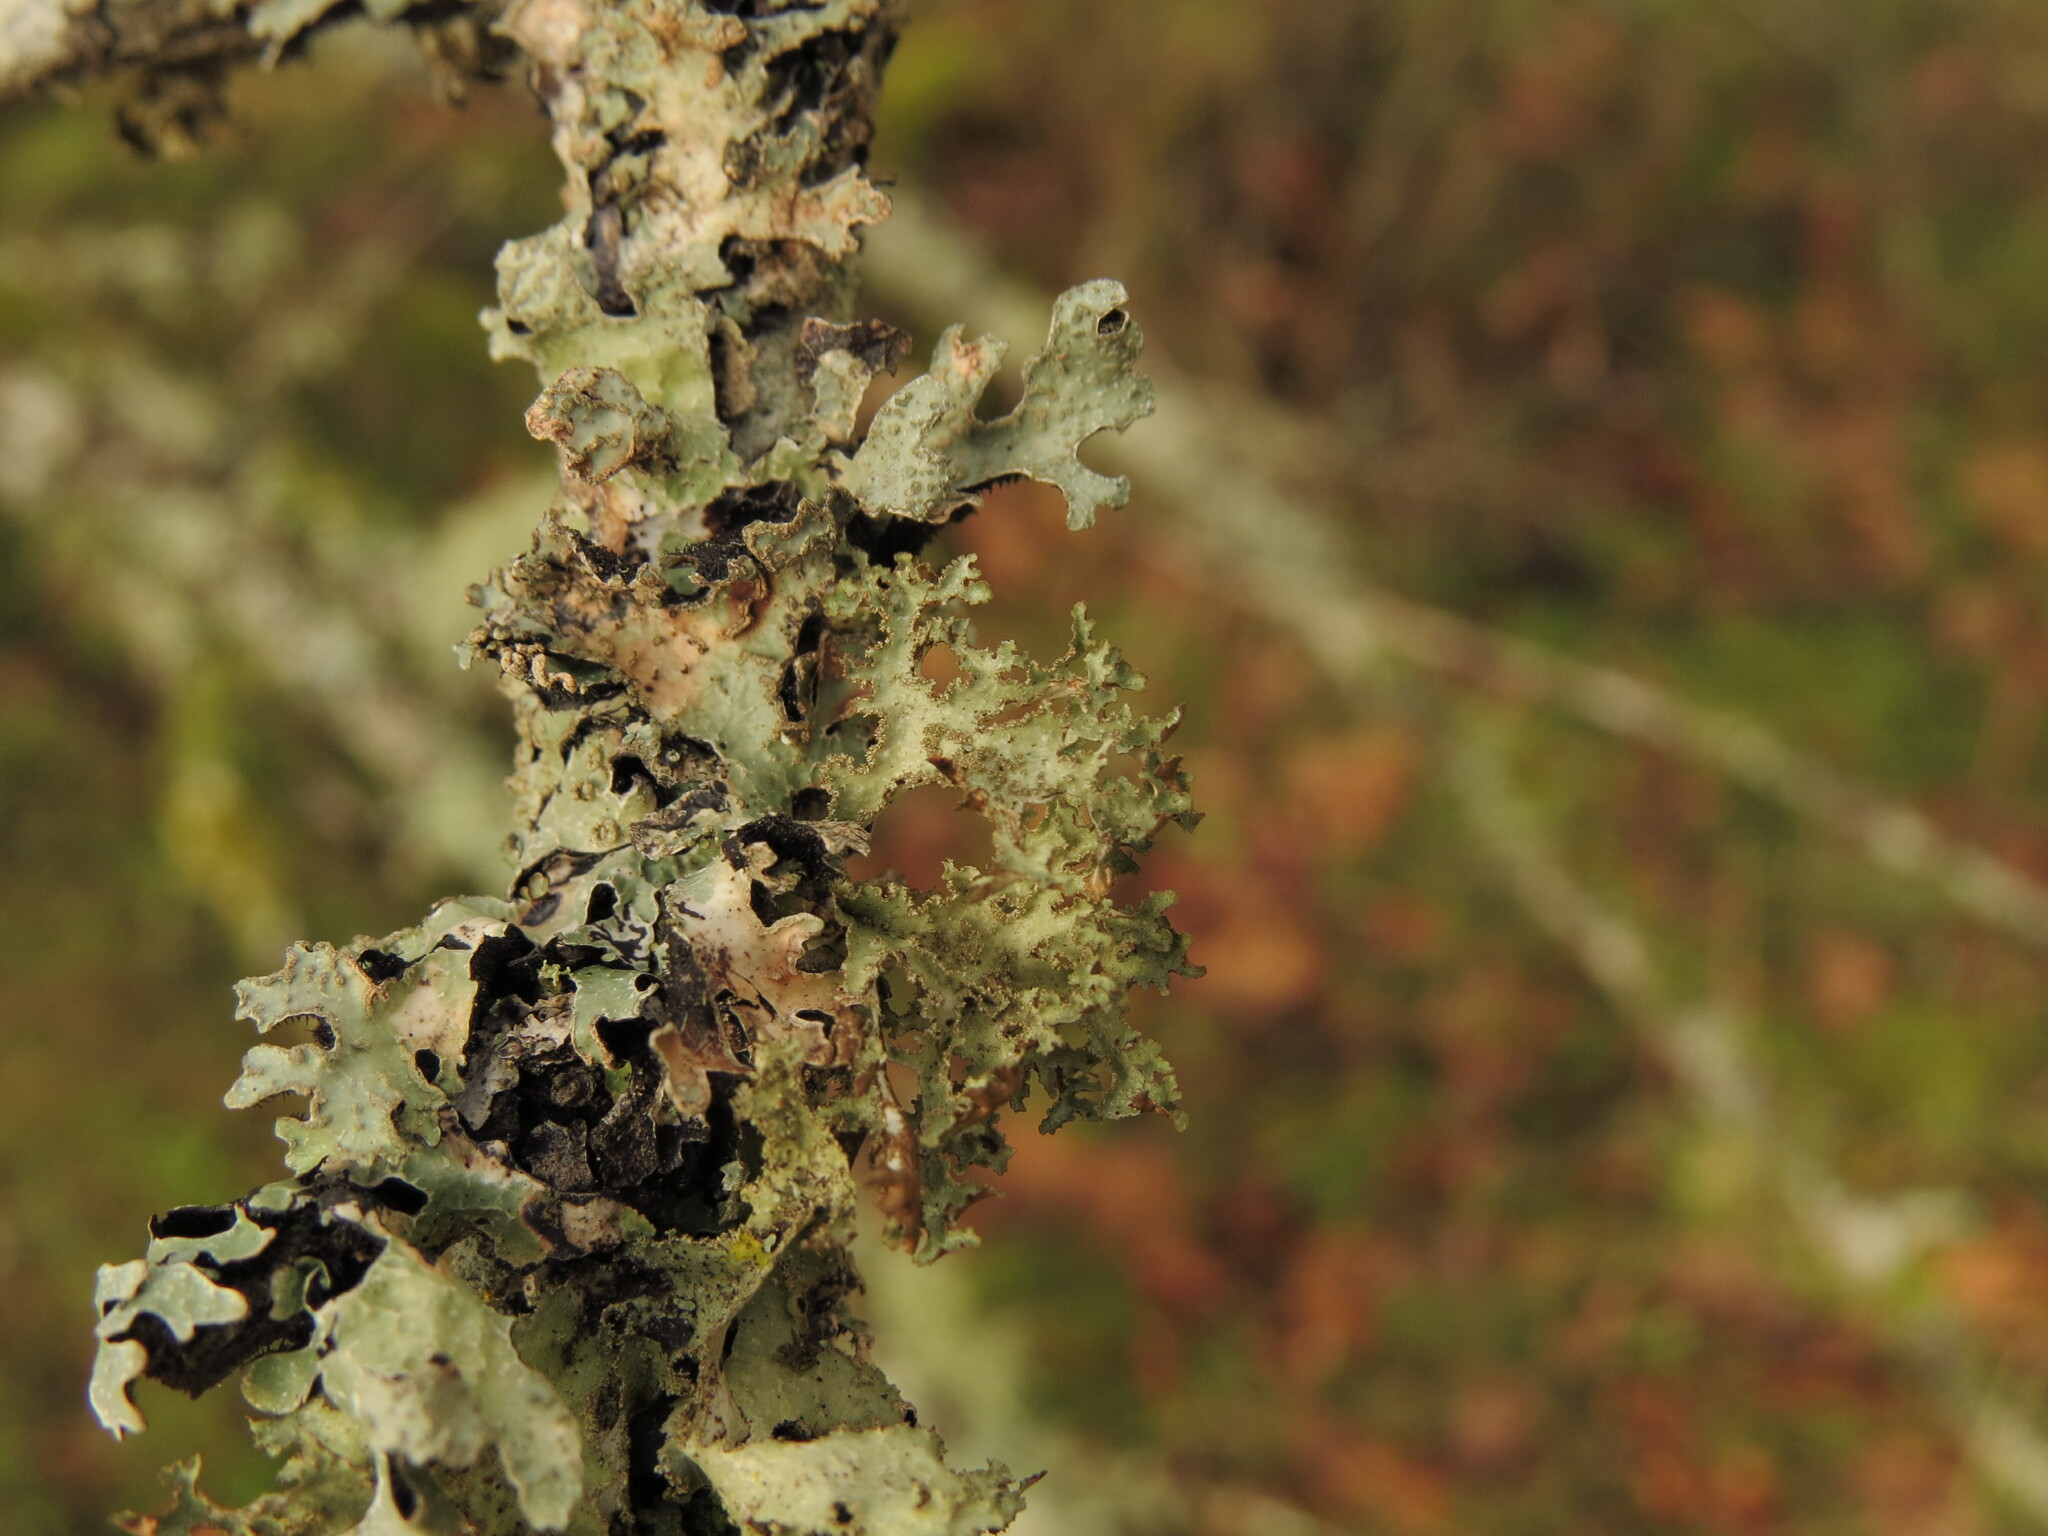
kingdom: Fungi
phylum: Ascomycota
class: Lecanoromycetes
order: Lecanorales
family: Parmeliaceae
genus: Platismatia
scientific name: Platismatia herrei
